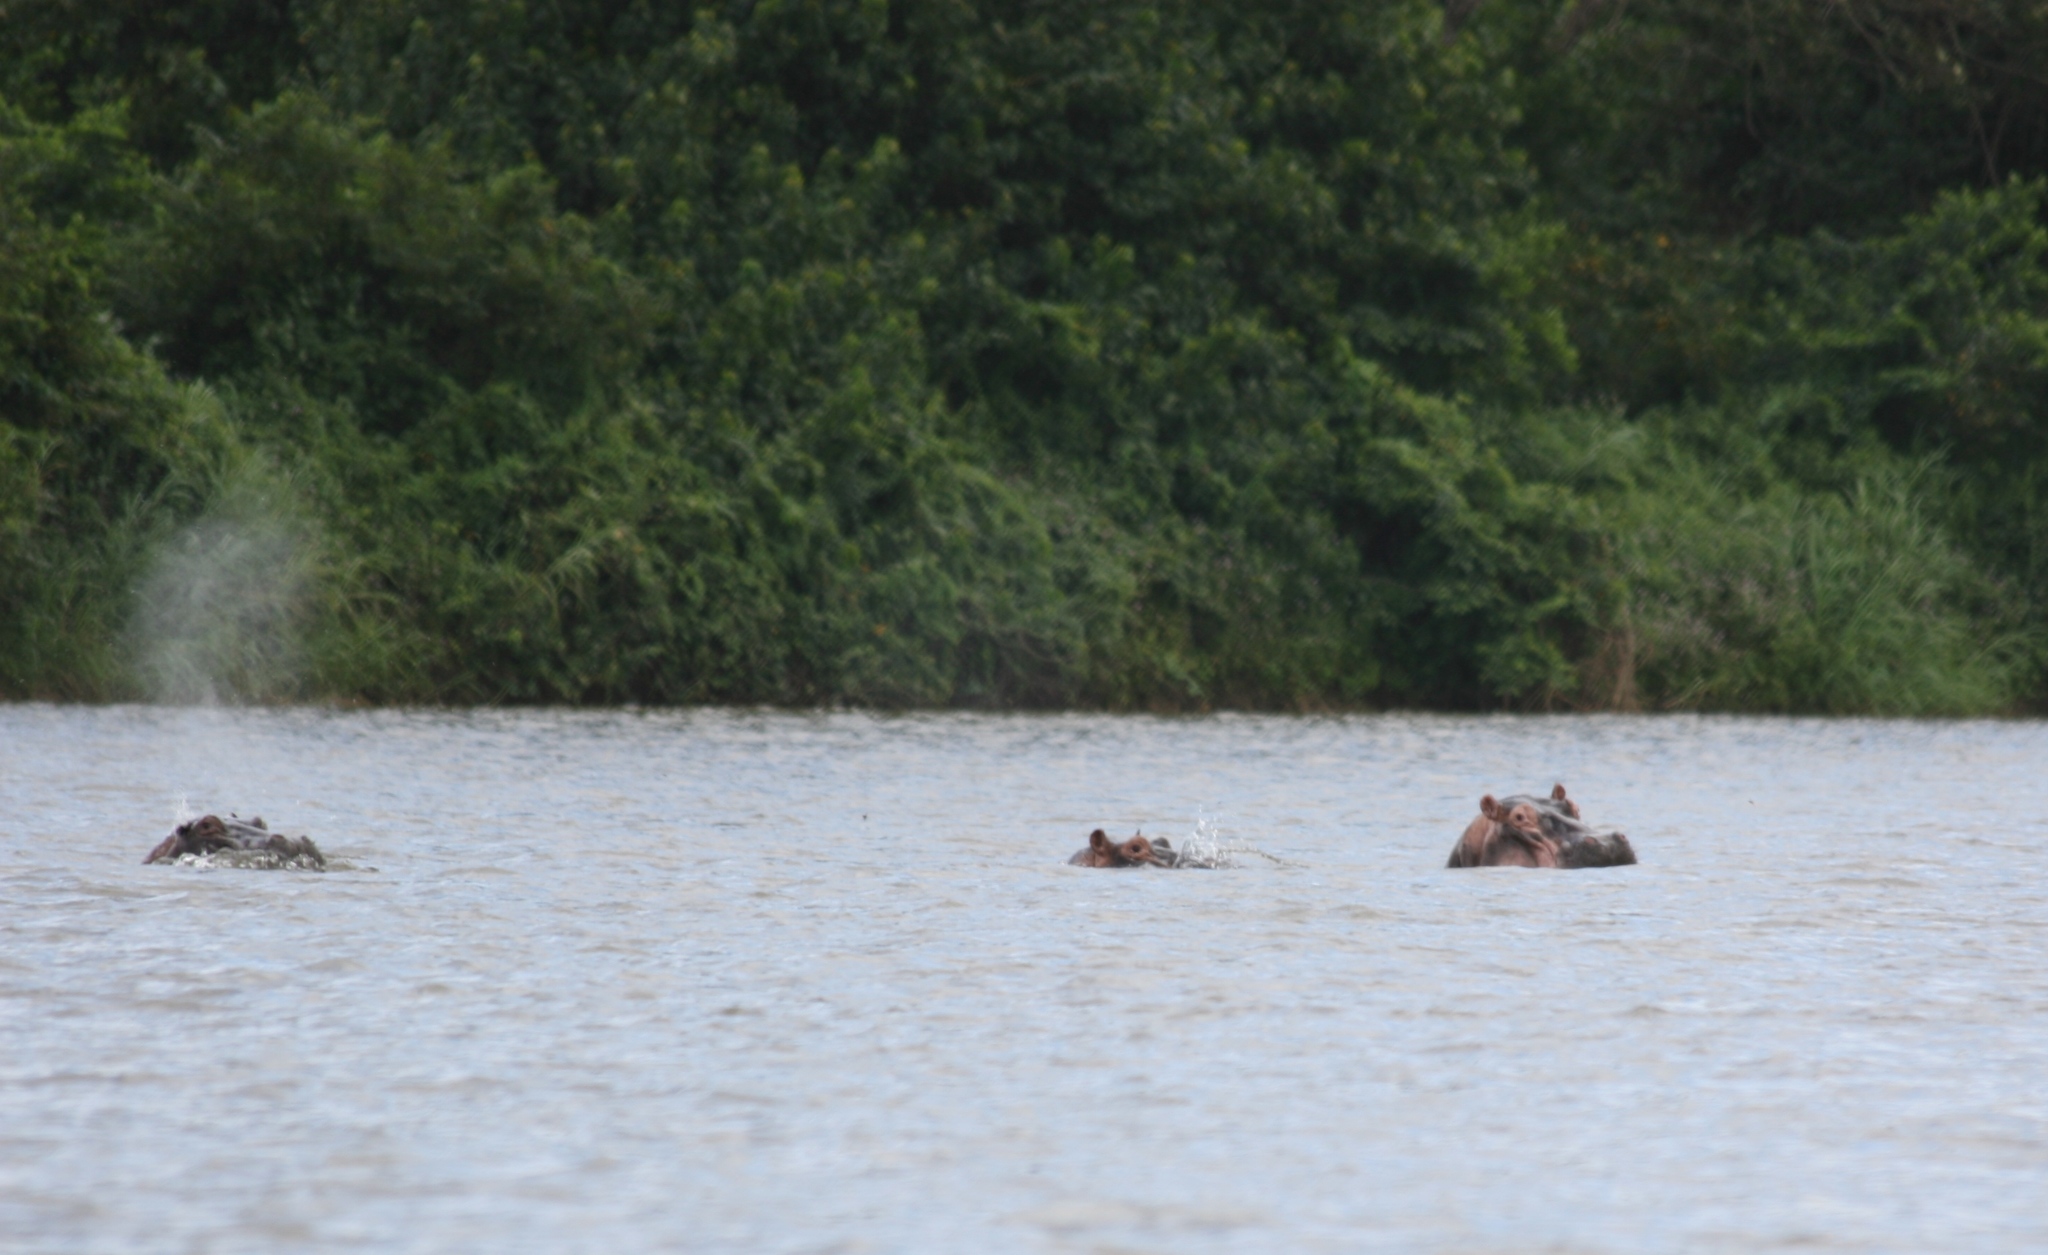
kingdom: Animalia
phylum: Chordata
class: Mammalia
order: Artiodactyla
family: Hippopotamidae
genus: Hippopotamus
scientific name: Hippopotamus amphibius
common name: Common hippopotamus
